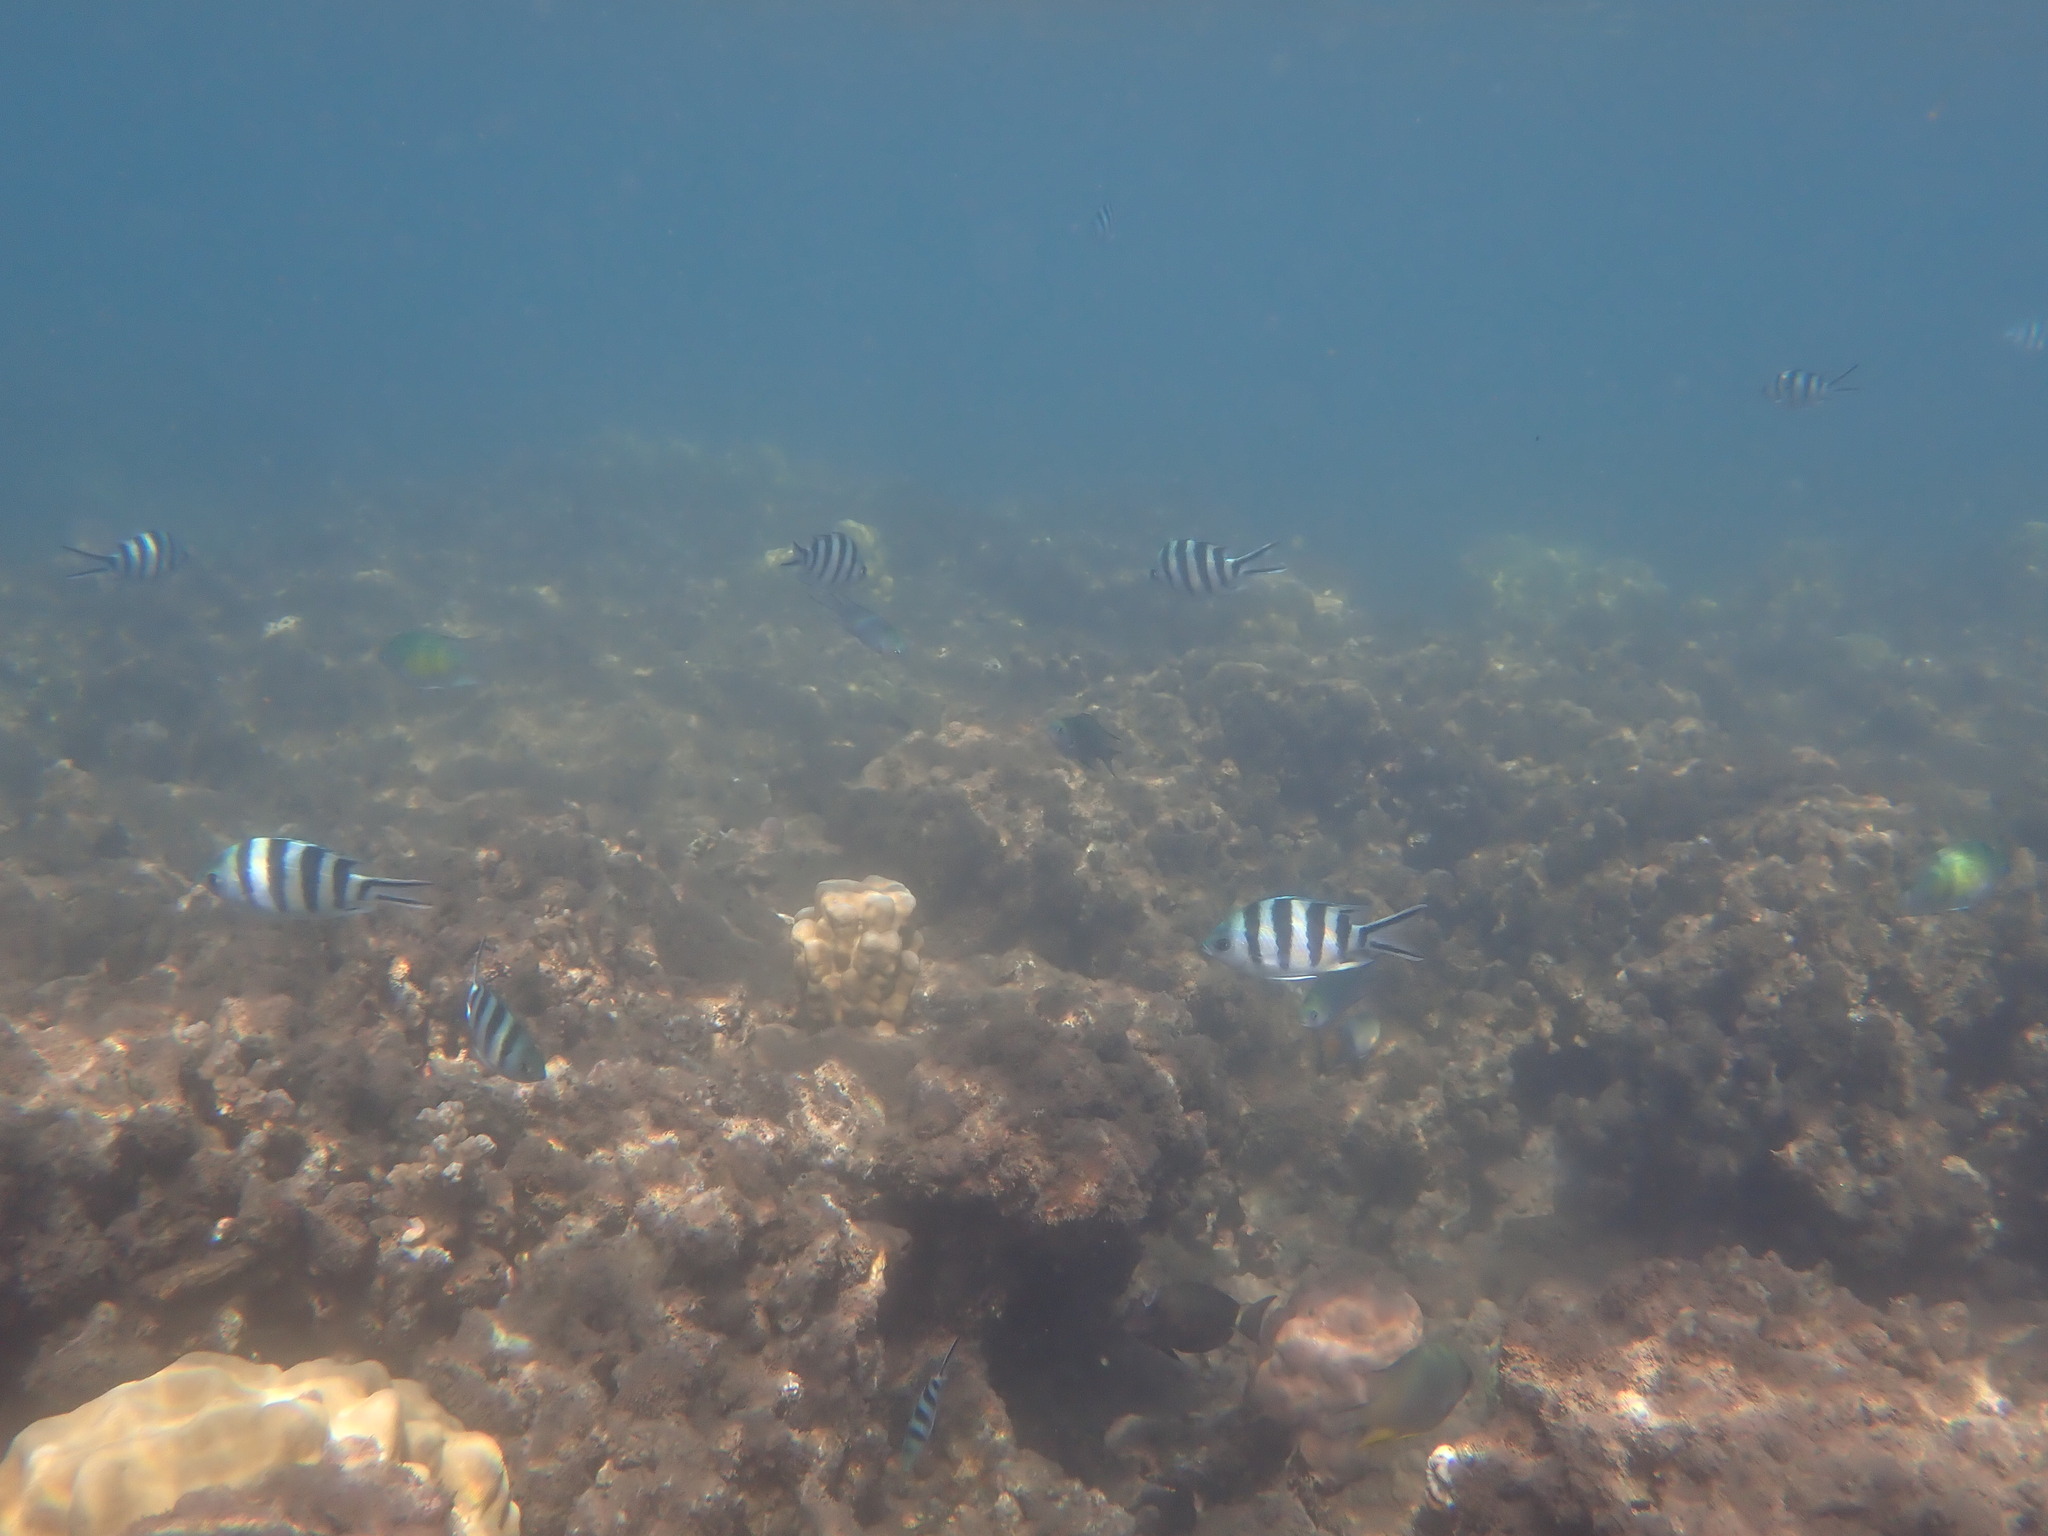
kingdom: Animalia
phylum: Chordata
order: Perciformes
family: Pomacentridae
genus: Abudefduf
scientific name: Abudefduf sexfasciatus
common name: Scissortail sergeant
